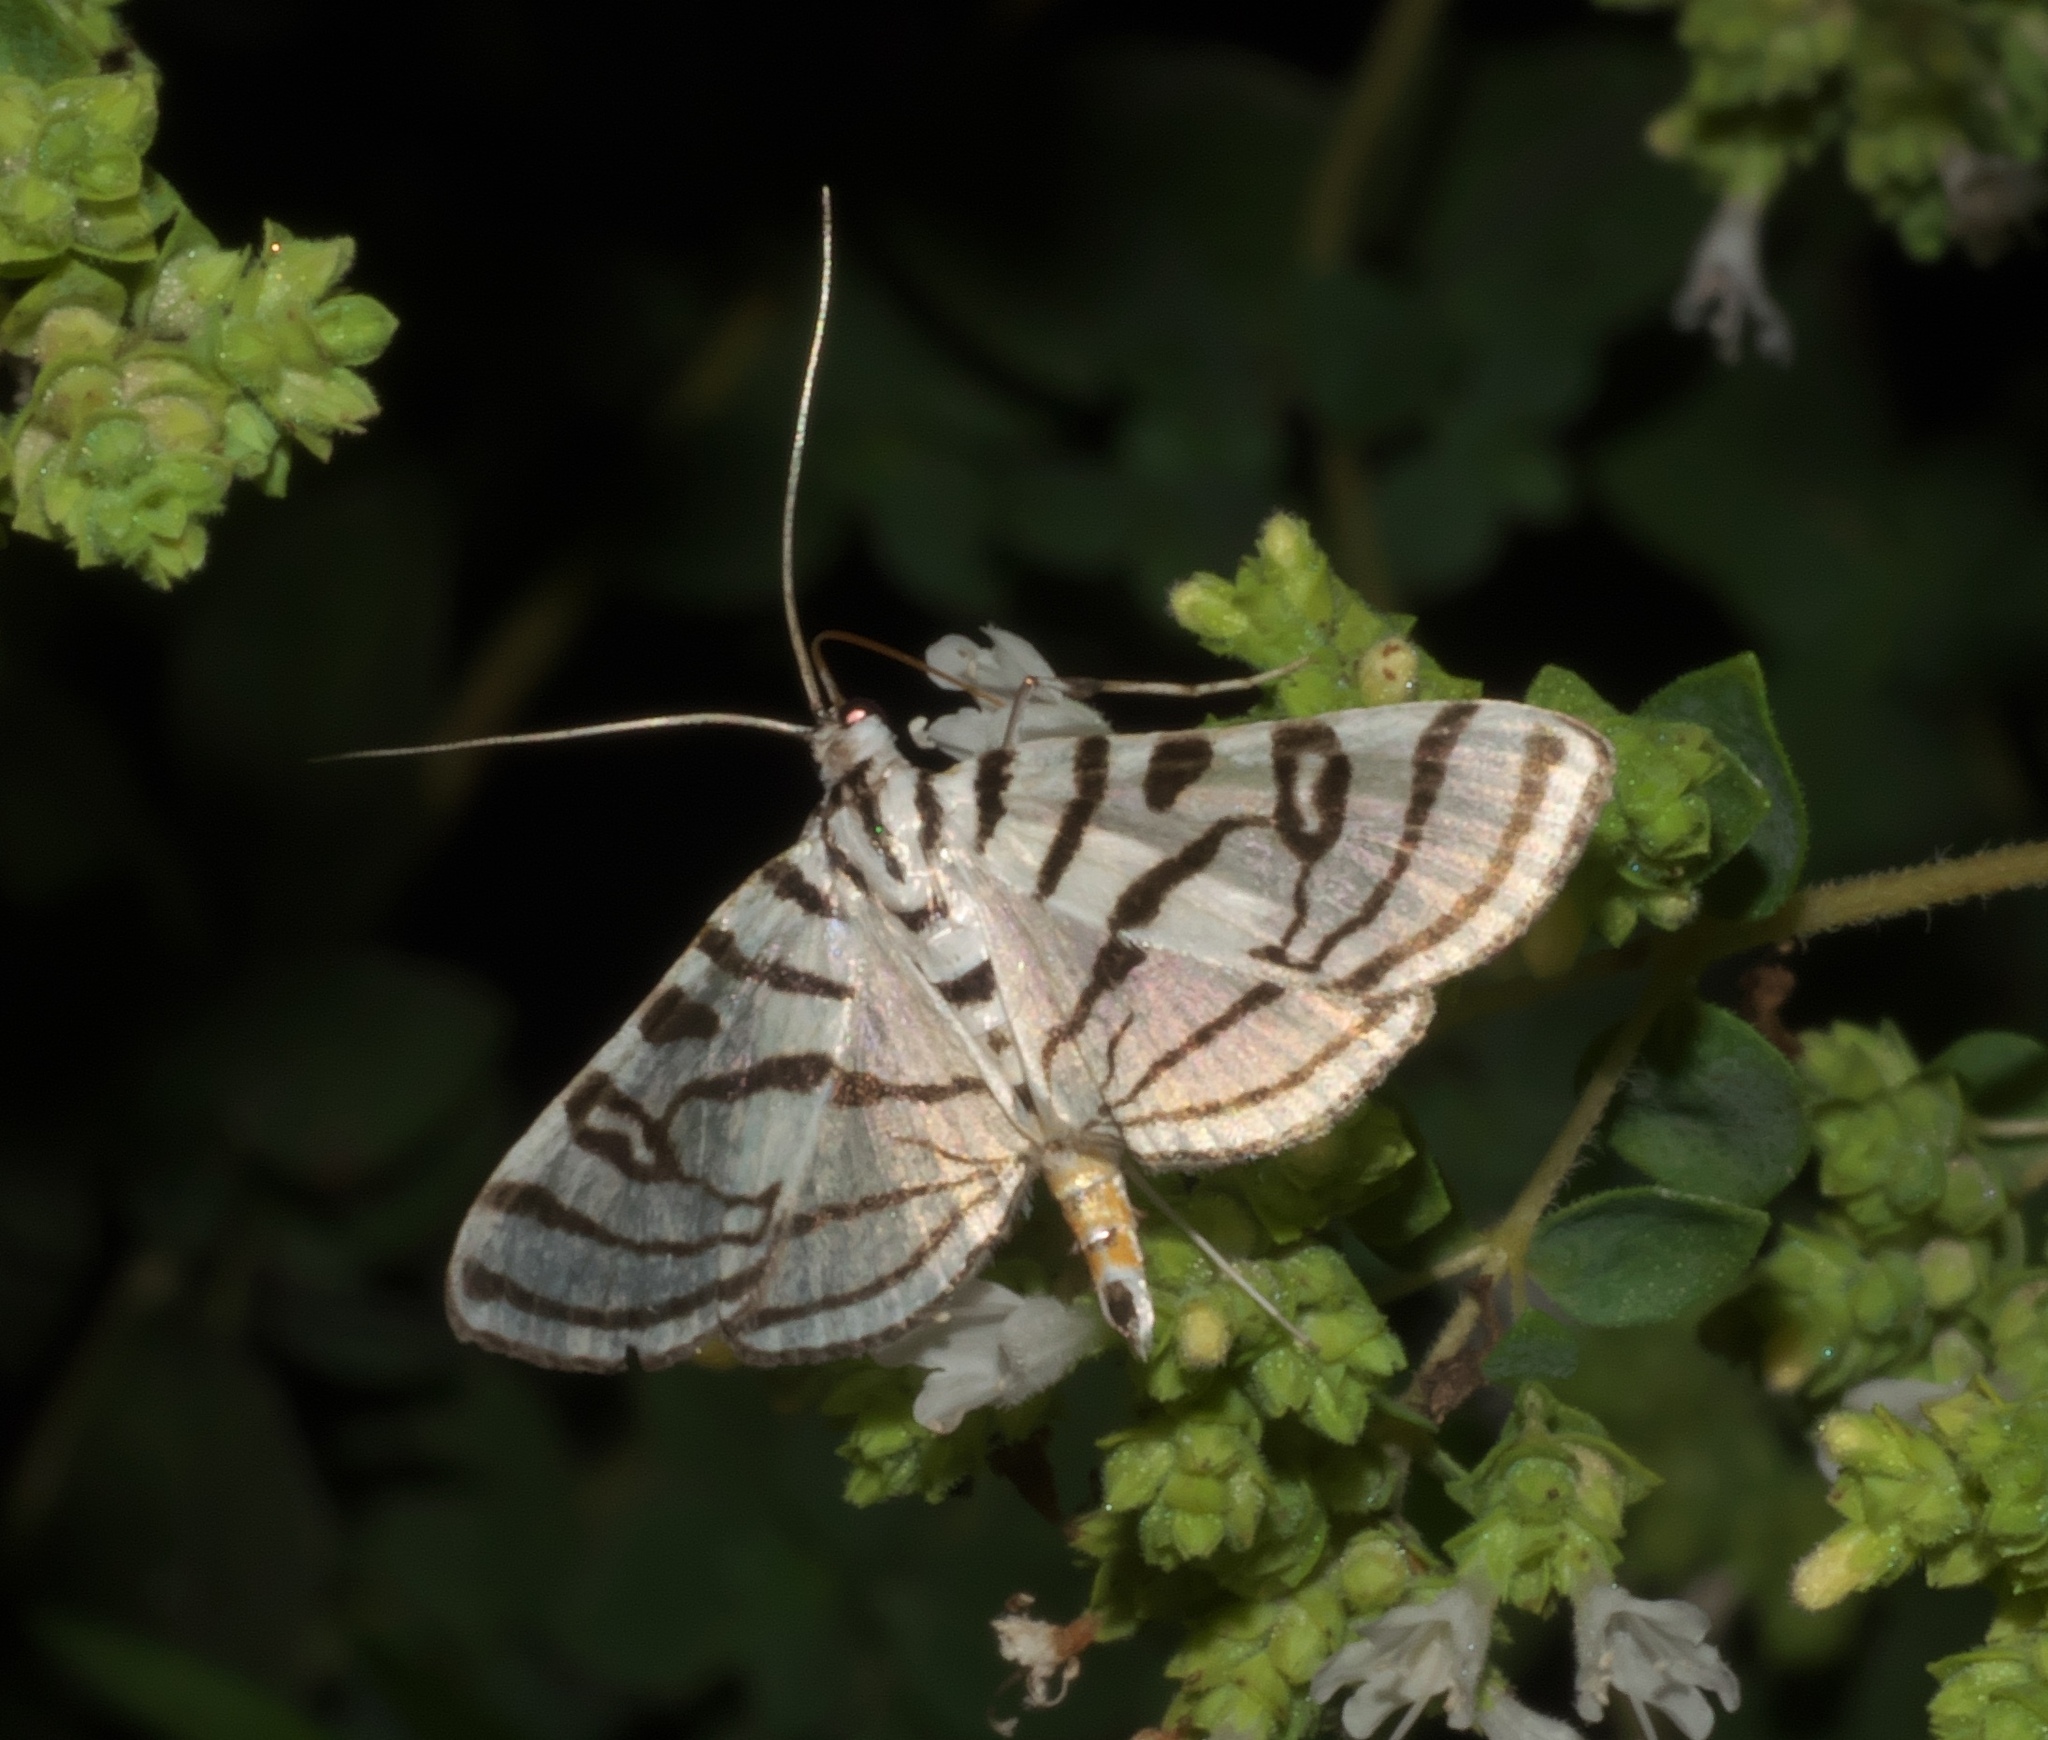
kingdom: Animalia
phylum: Arthropoda
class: Insecta
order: Lepidoptera
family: Crambidae
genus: Conchylodes
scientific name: Conchylodes ovulalis
